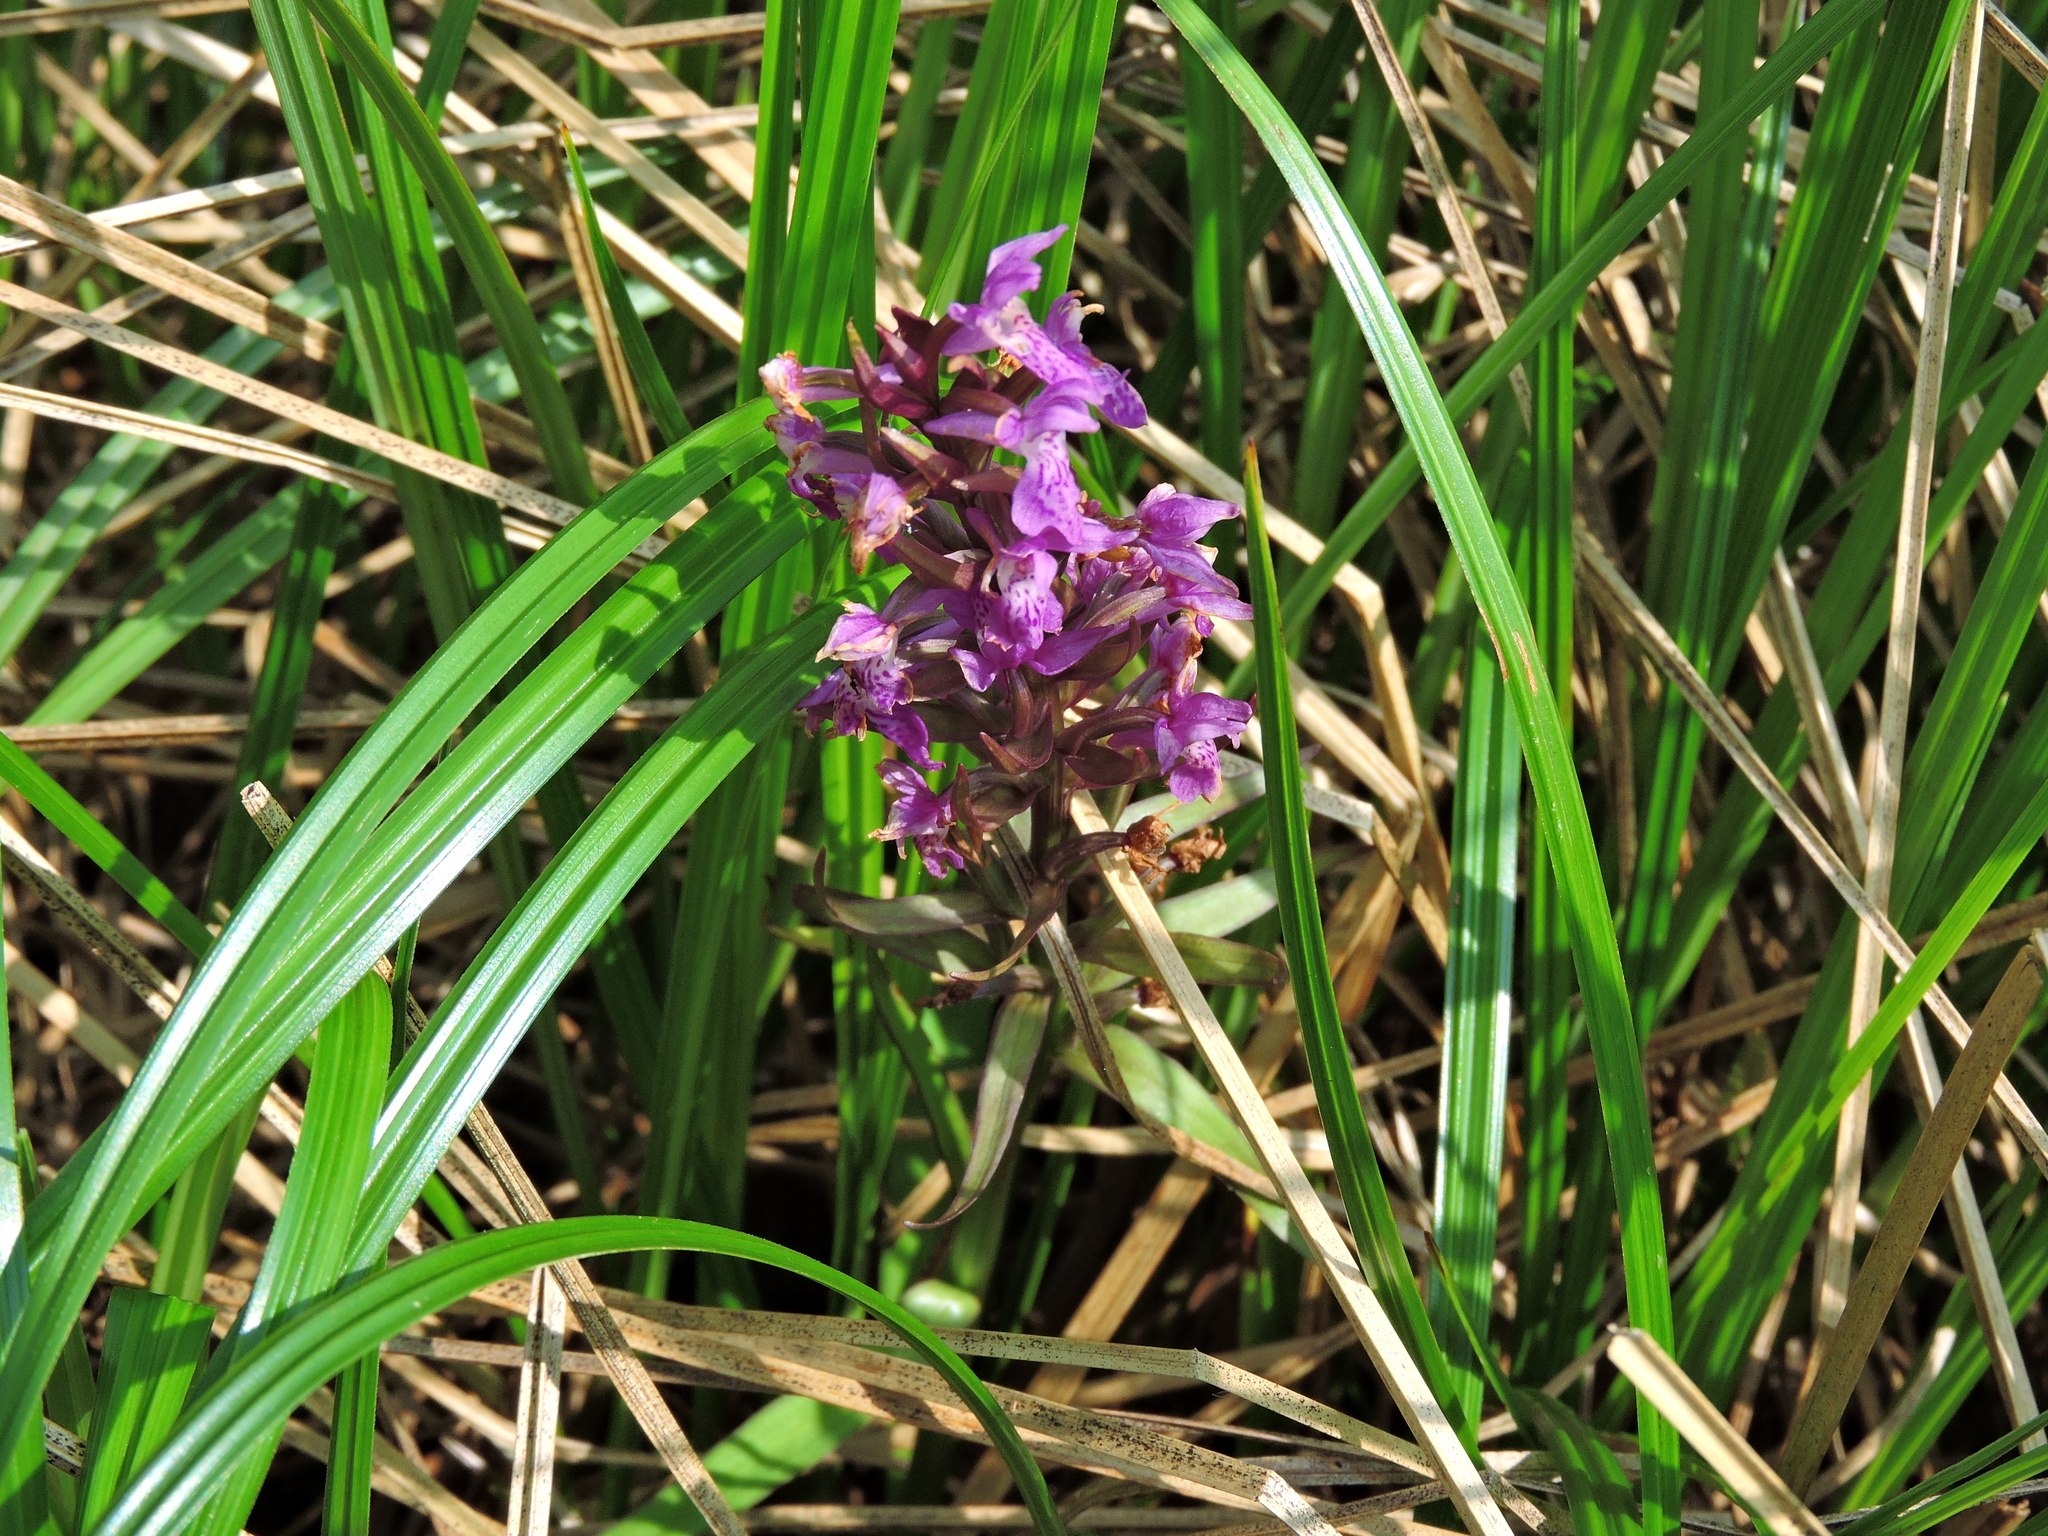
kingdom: Plantae
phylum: Tracheophyta
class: Liliopsida
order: Asparagales
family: Orchidaceae
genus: Dactylorhiza
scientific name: Dactylorhiza incarnata
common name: Early marsh-orchid
